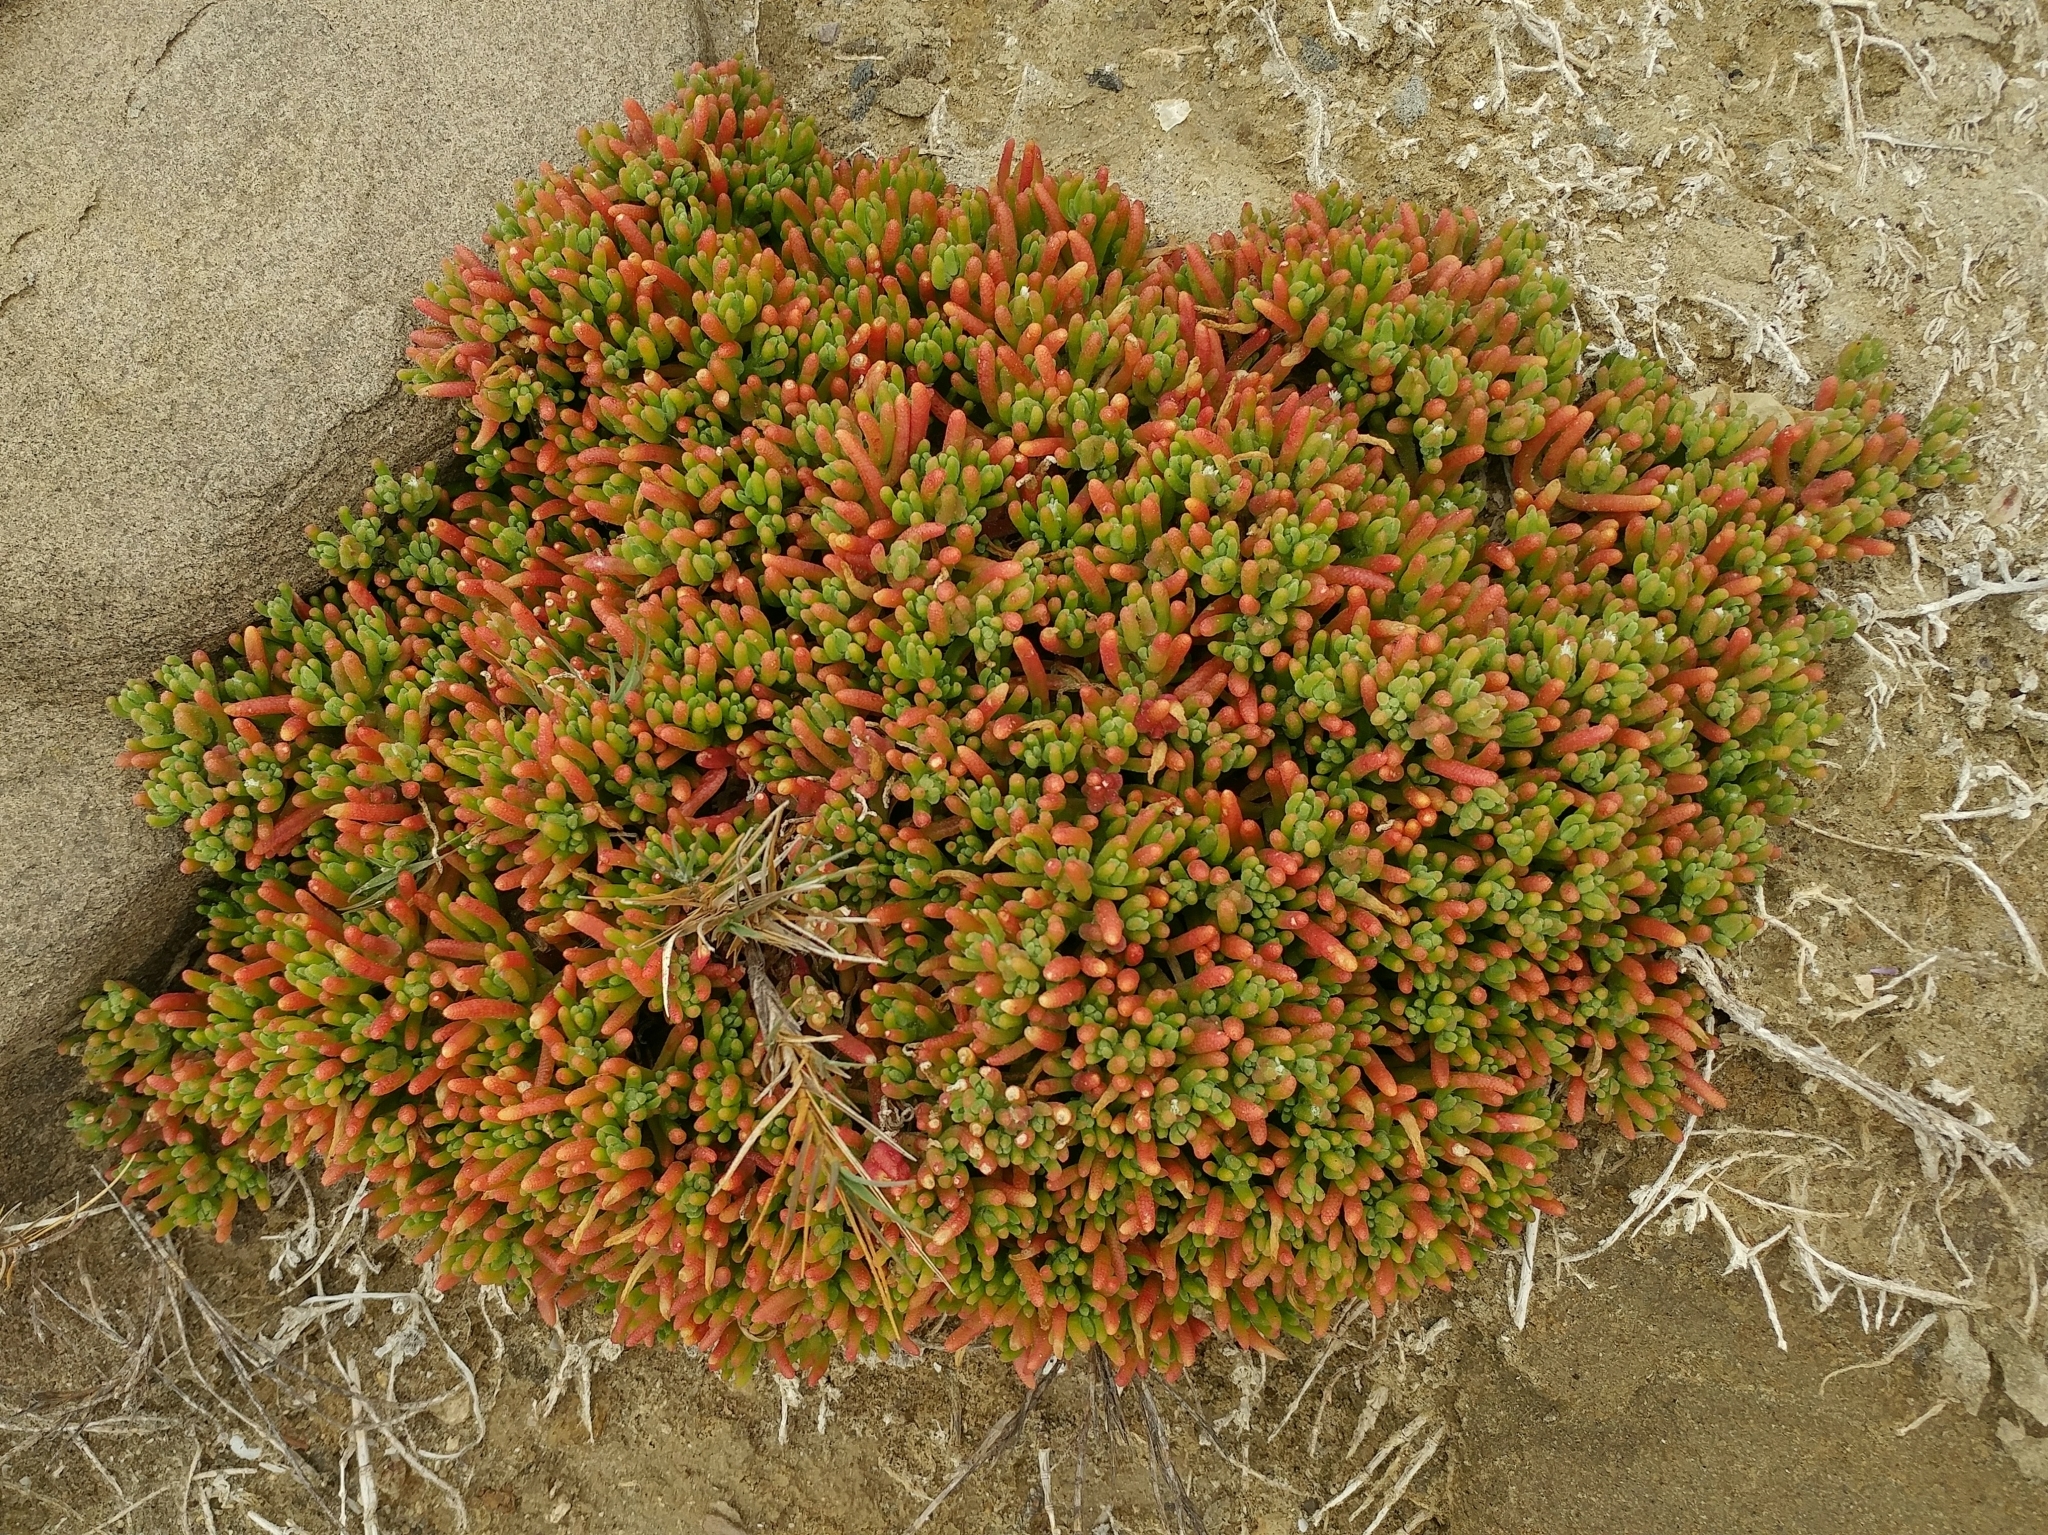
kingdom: Plantae
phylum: Tracheophyta
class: Magnoliopsida
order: Caryophyllales
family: Aizoaceae
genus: Mesembryanthemum
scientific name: Mesembryanthemum nodiflorum
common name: Slenderleaf iceplant
